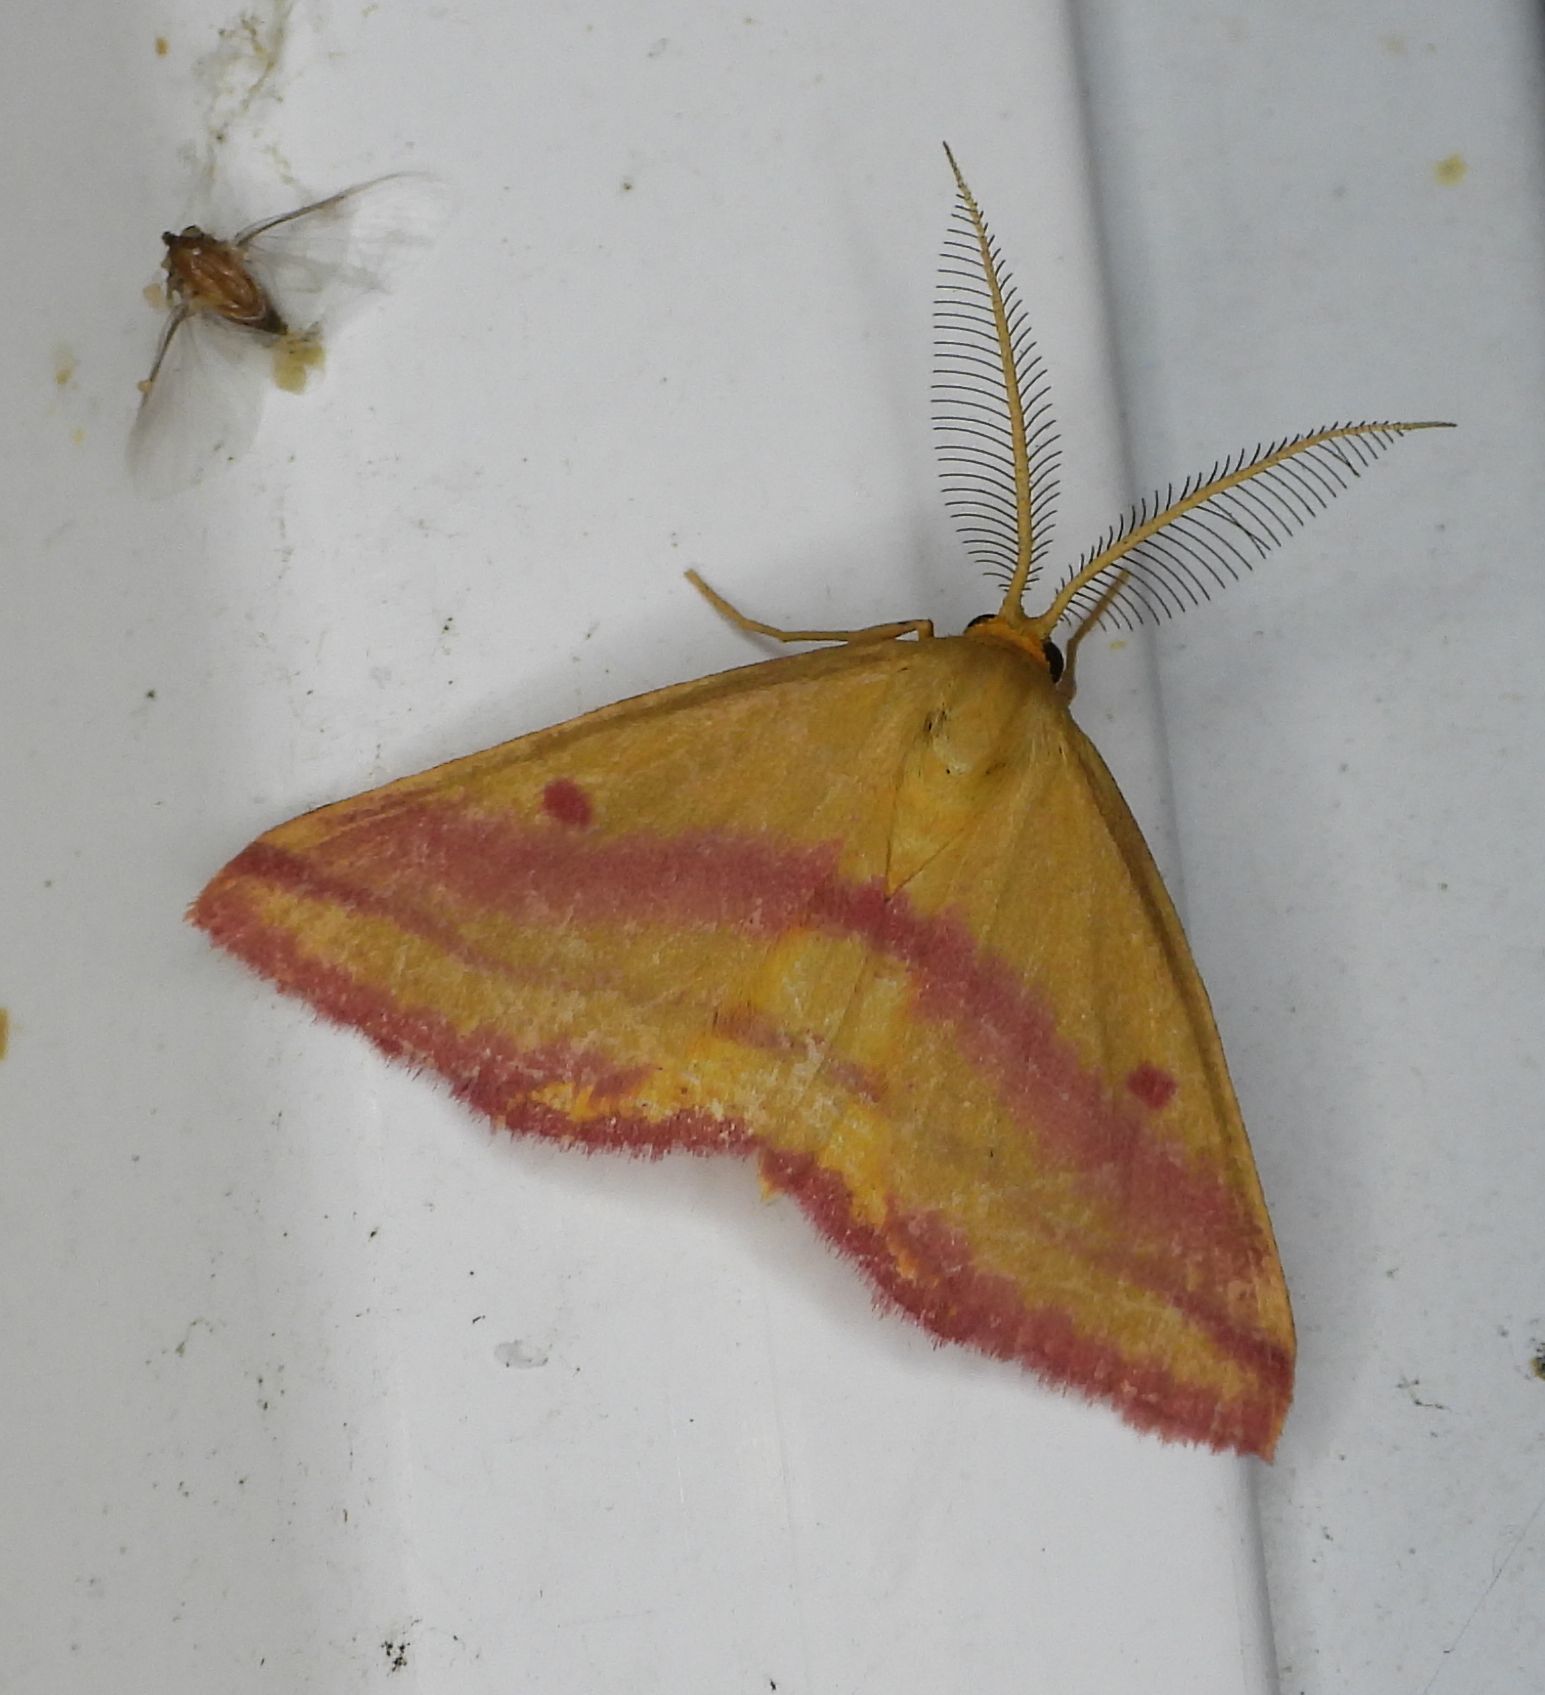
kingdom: Animalia
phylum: Arthropoda
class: Insecta
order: Lepidoptera
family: Geometridae
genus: Haematopis
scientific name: Haematopis grataria
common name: Chickweed geometer
